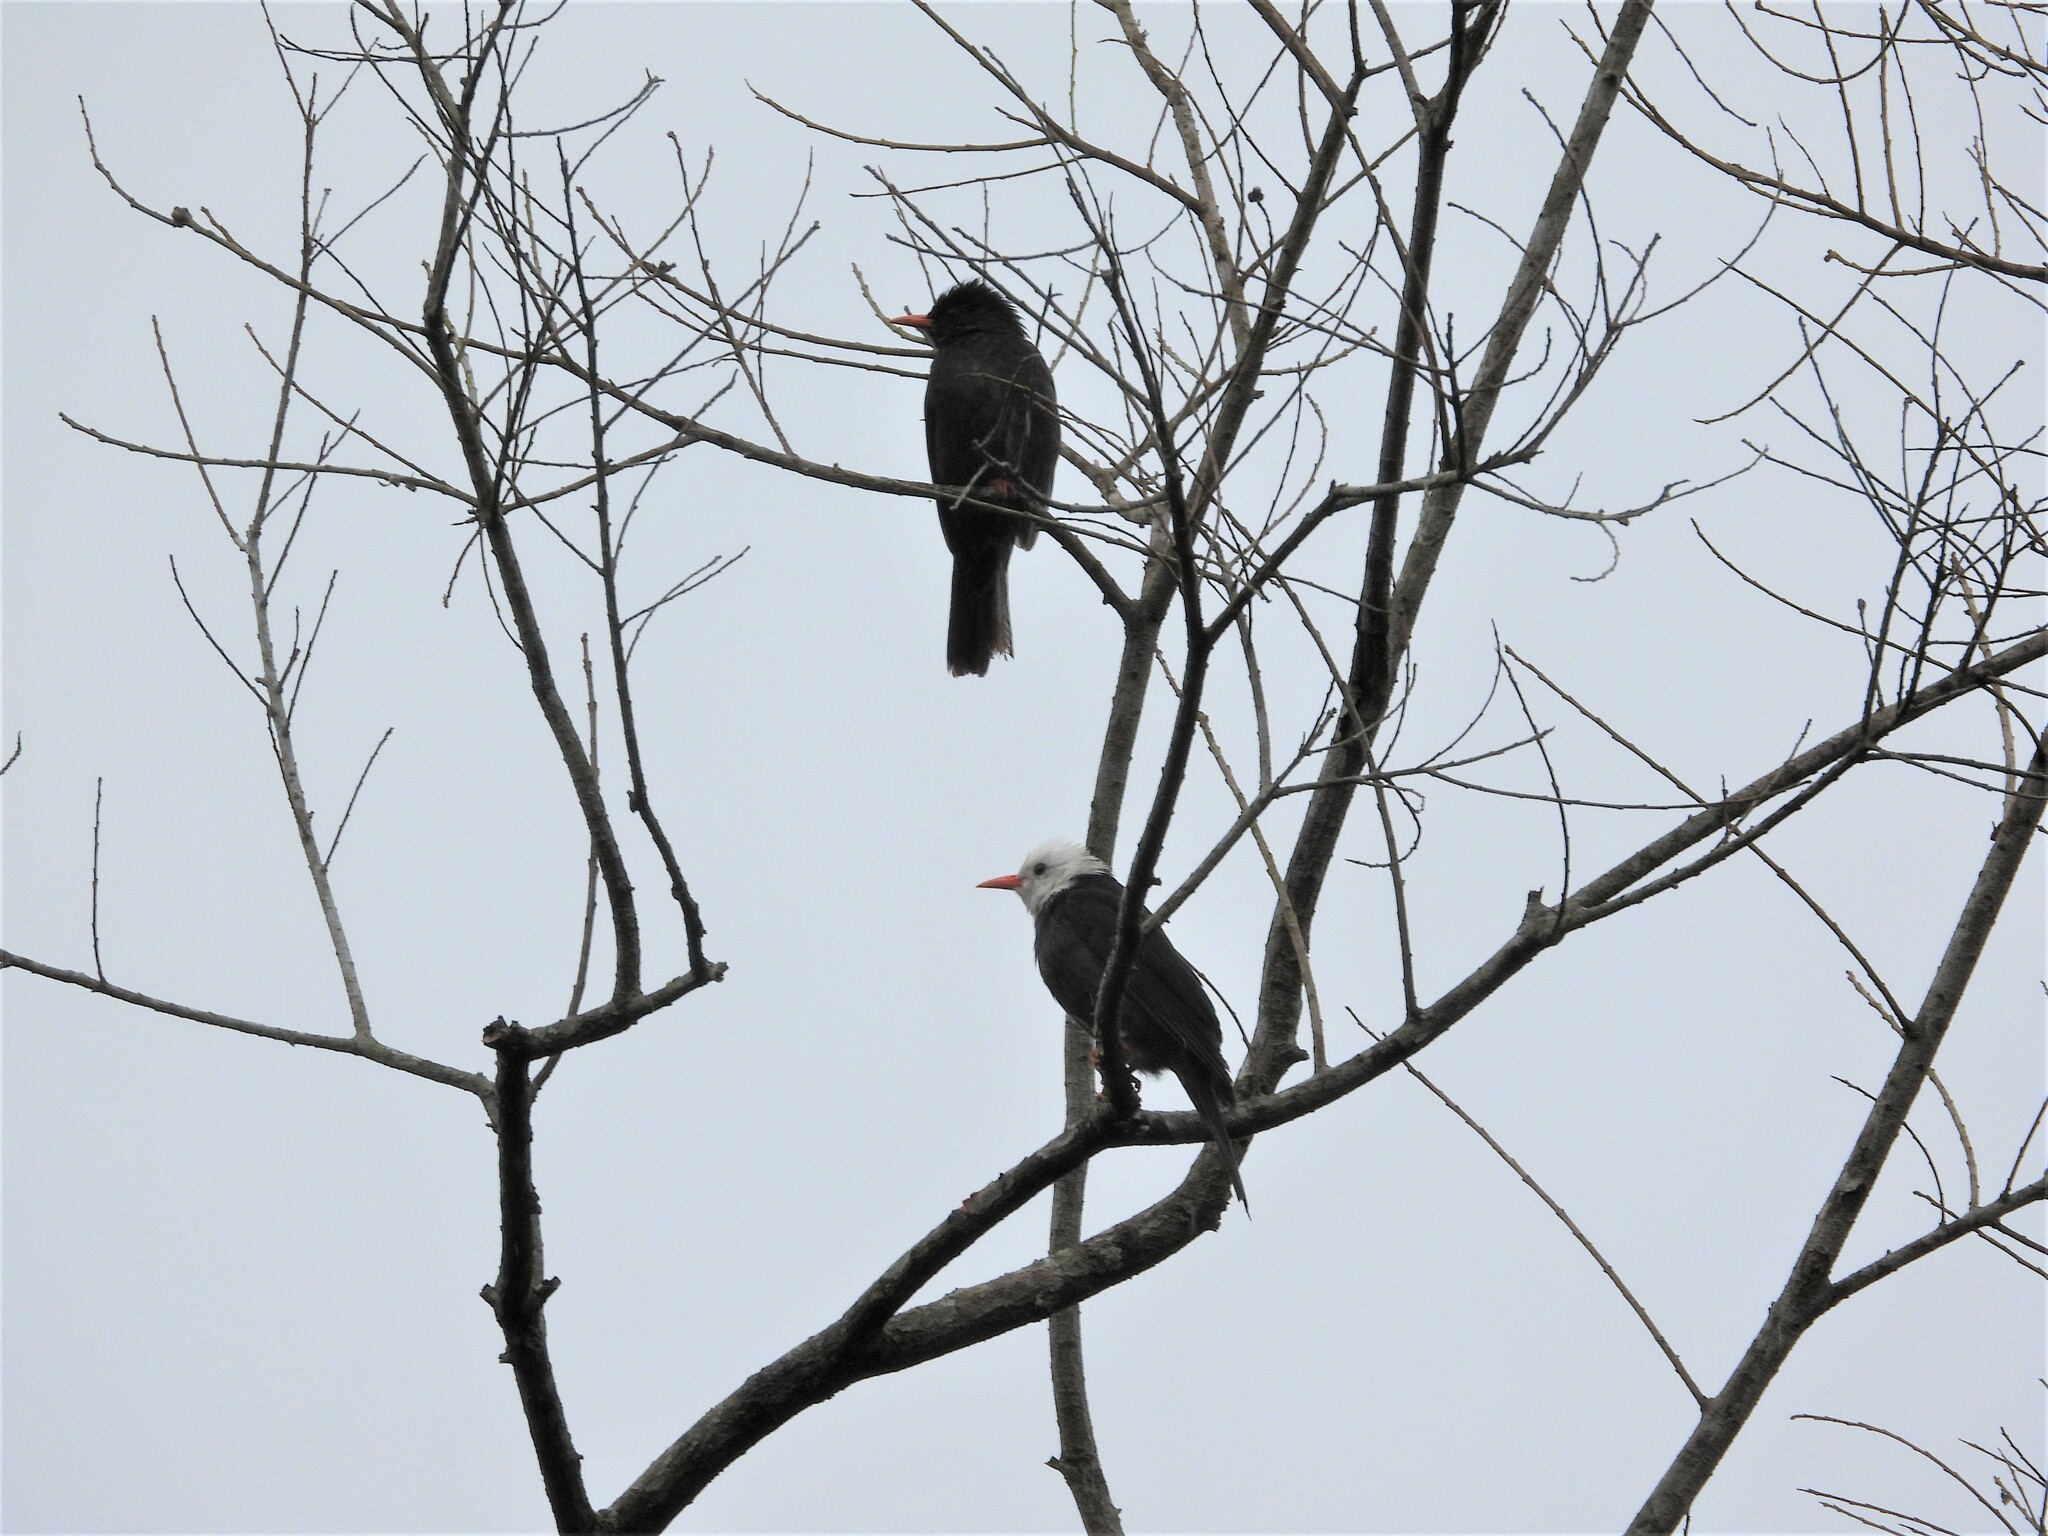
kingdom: Animalia
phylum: Chordata
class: Aves
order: Passeriformes
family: Pycnonotidae
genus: Hypsipetes
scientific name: Hypsipetes leucocephalus
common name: Black bulbul
